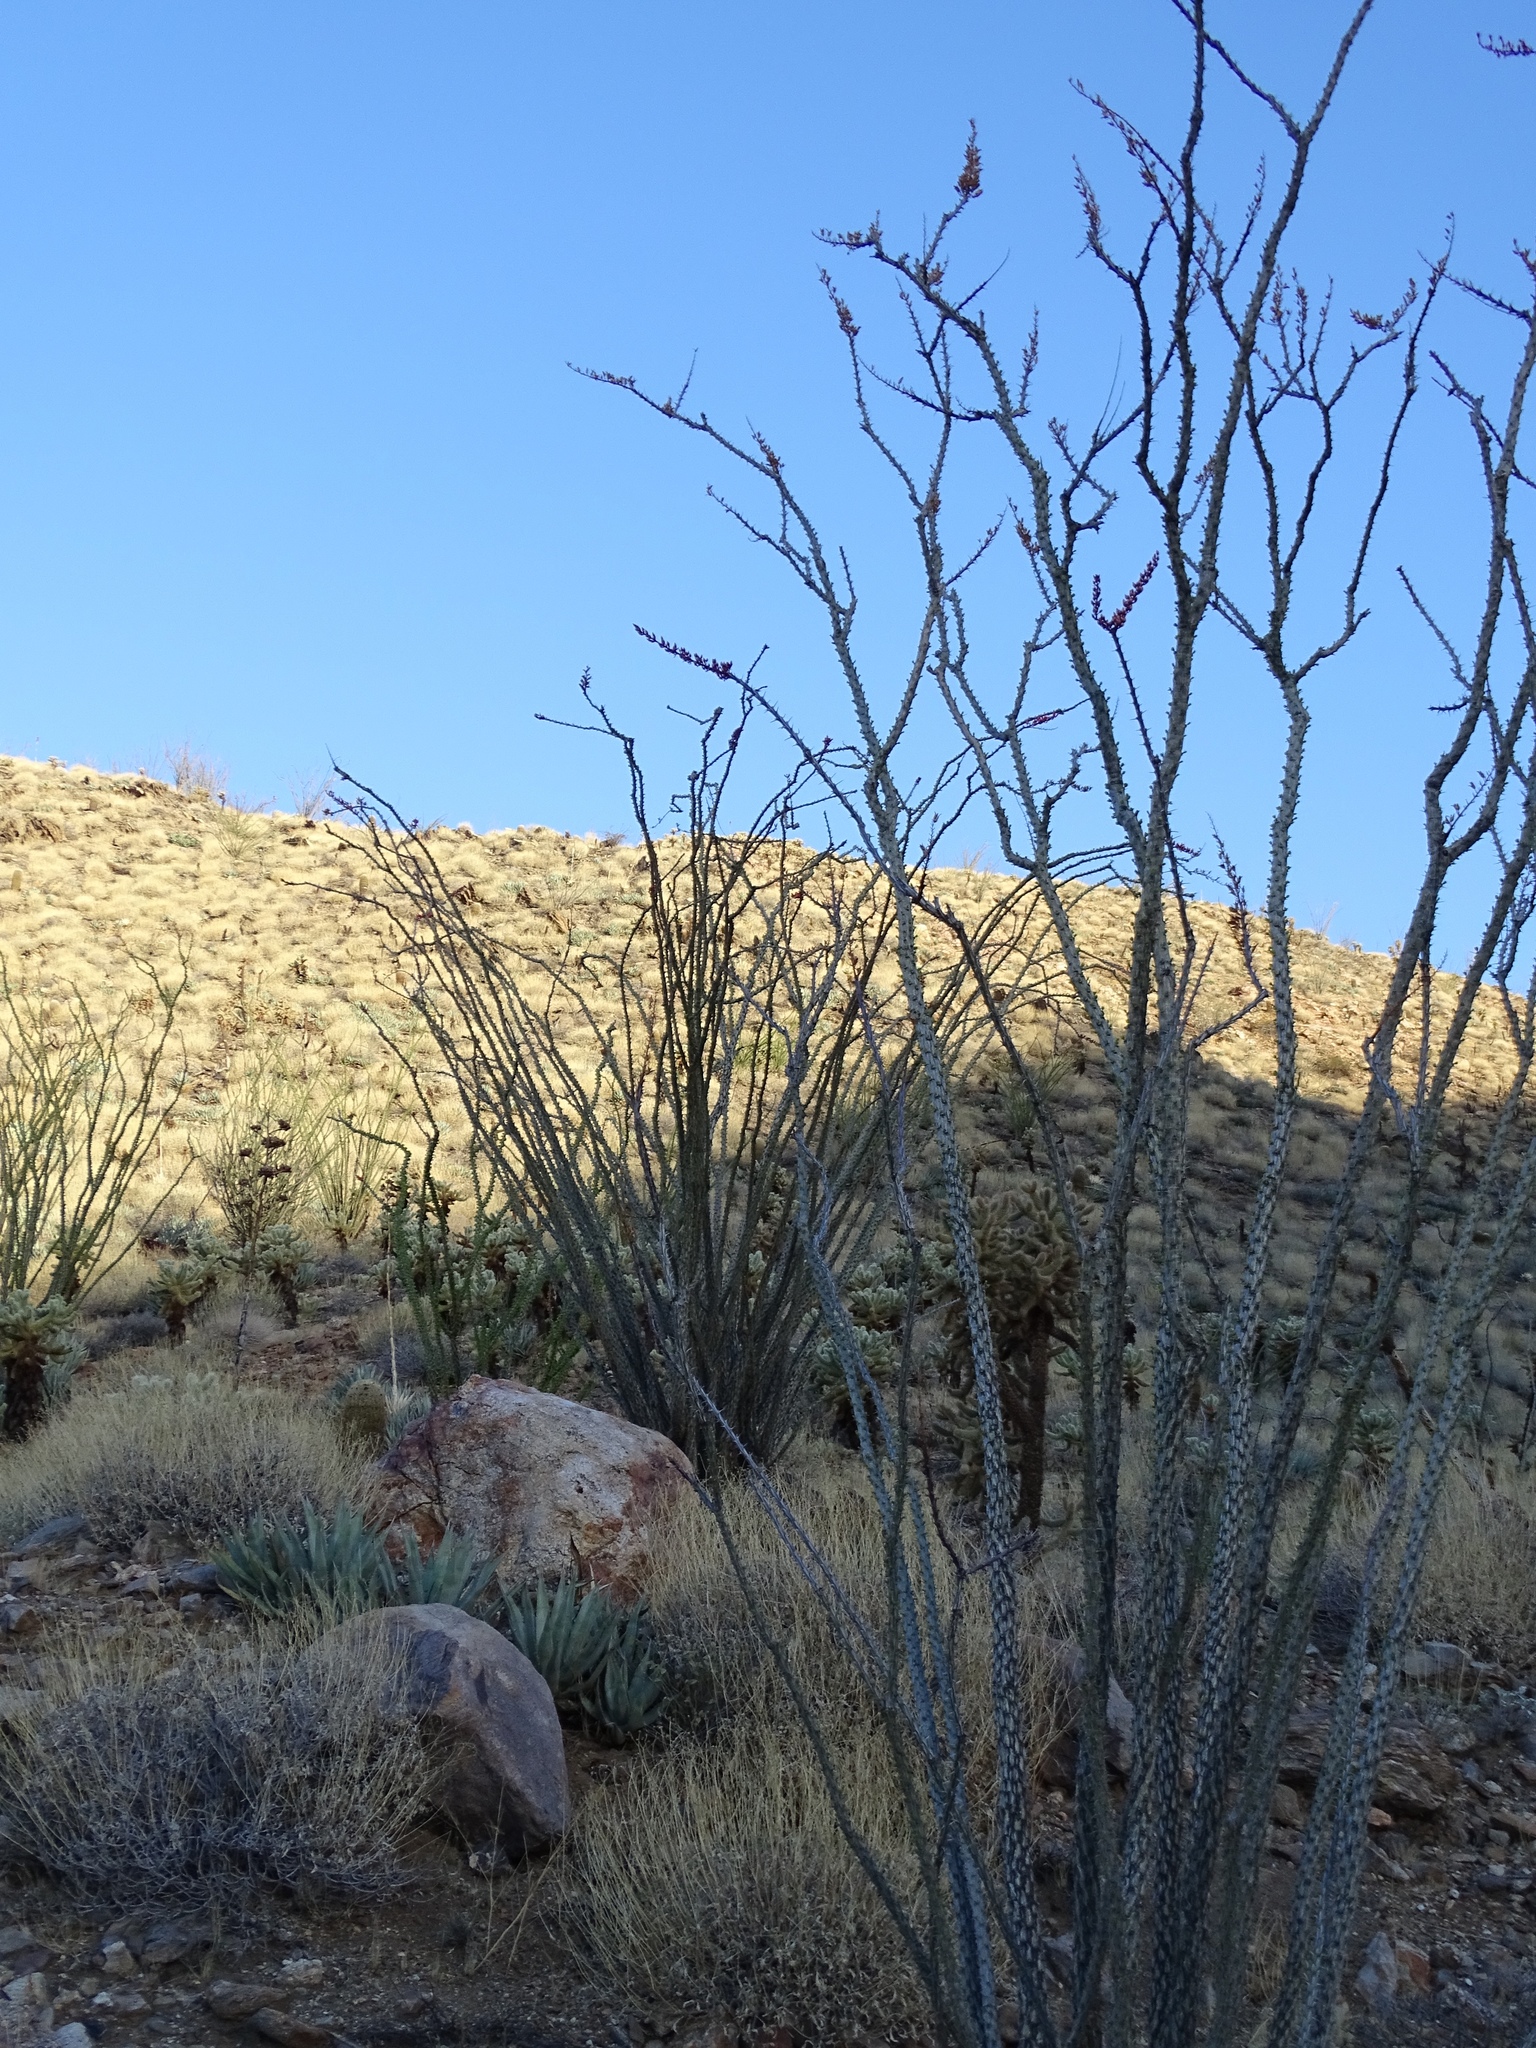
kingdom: Plantae
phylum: Tracheophyta
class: Magnoliopsida
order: Ericales
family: Fouquieriaceae
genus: Fouquieria
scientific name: Fouquieria splendens
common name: Vine-cactus
